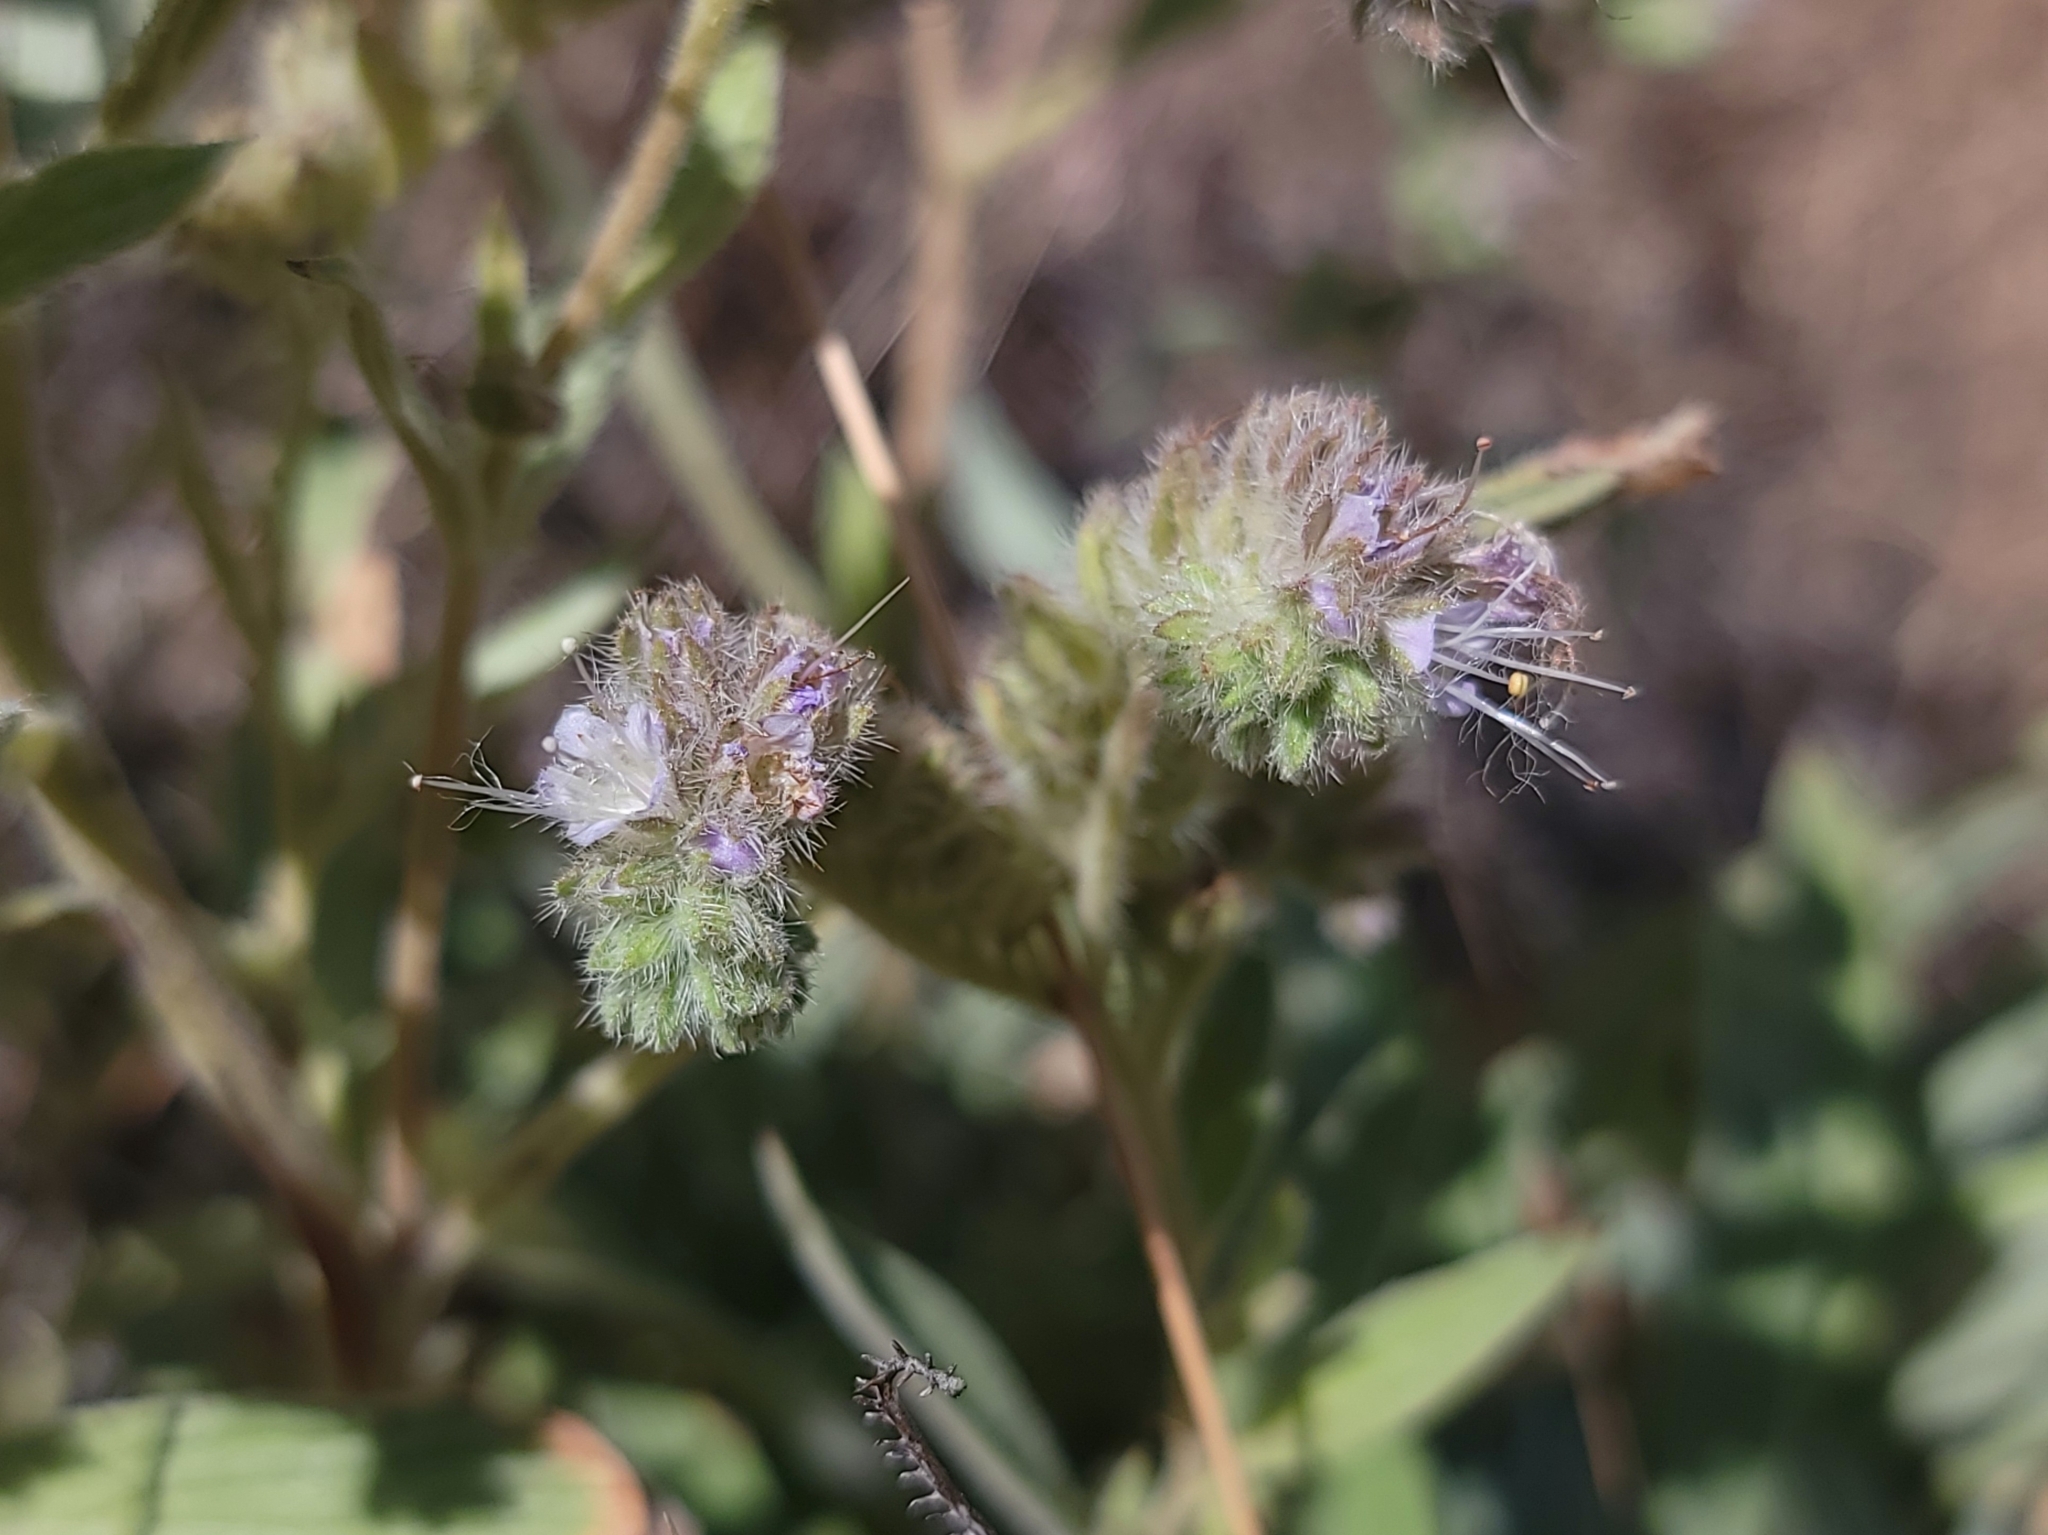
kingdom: Plantae
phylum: Tracheophyta
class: Magnoliopsida
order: Boraginales
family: Hydrophyllaceae
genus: Phacelia
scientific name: Phacelia hastata
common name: Silver-leaved phacelia
